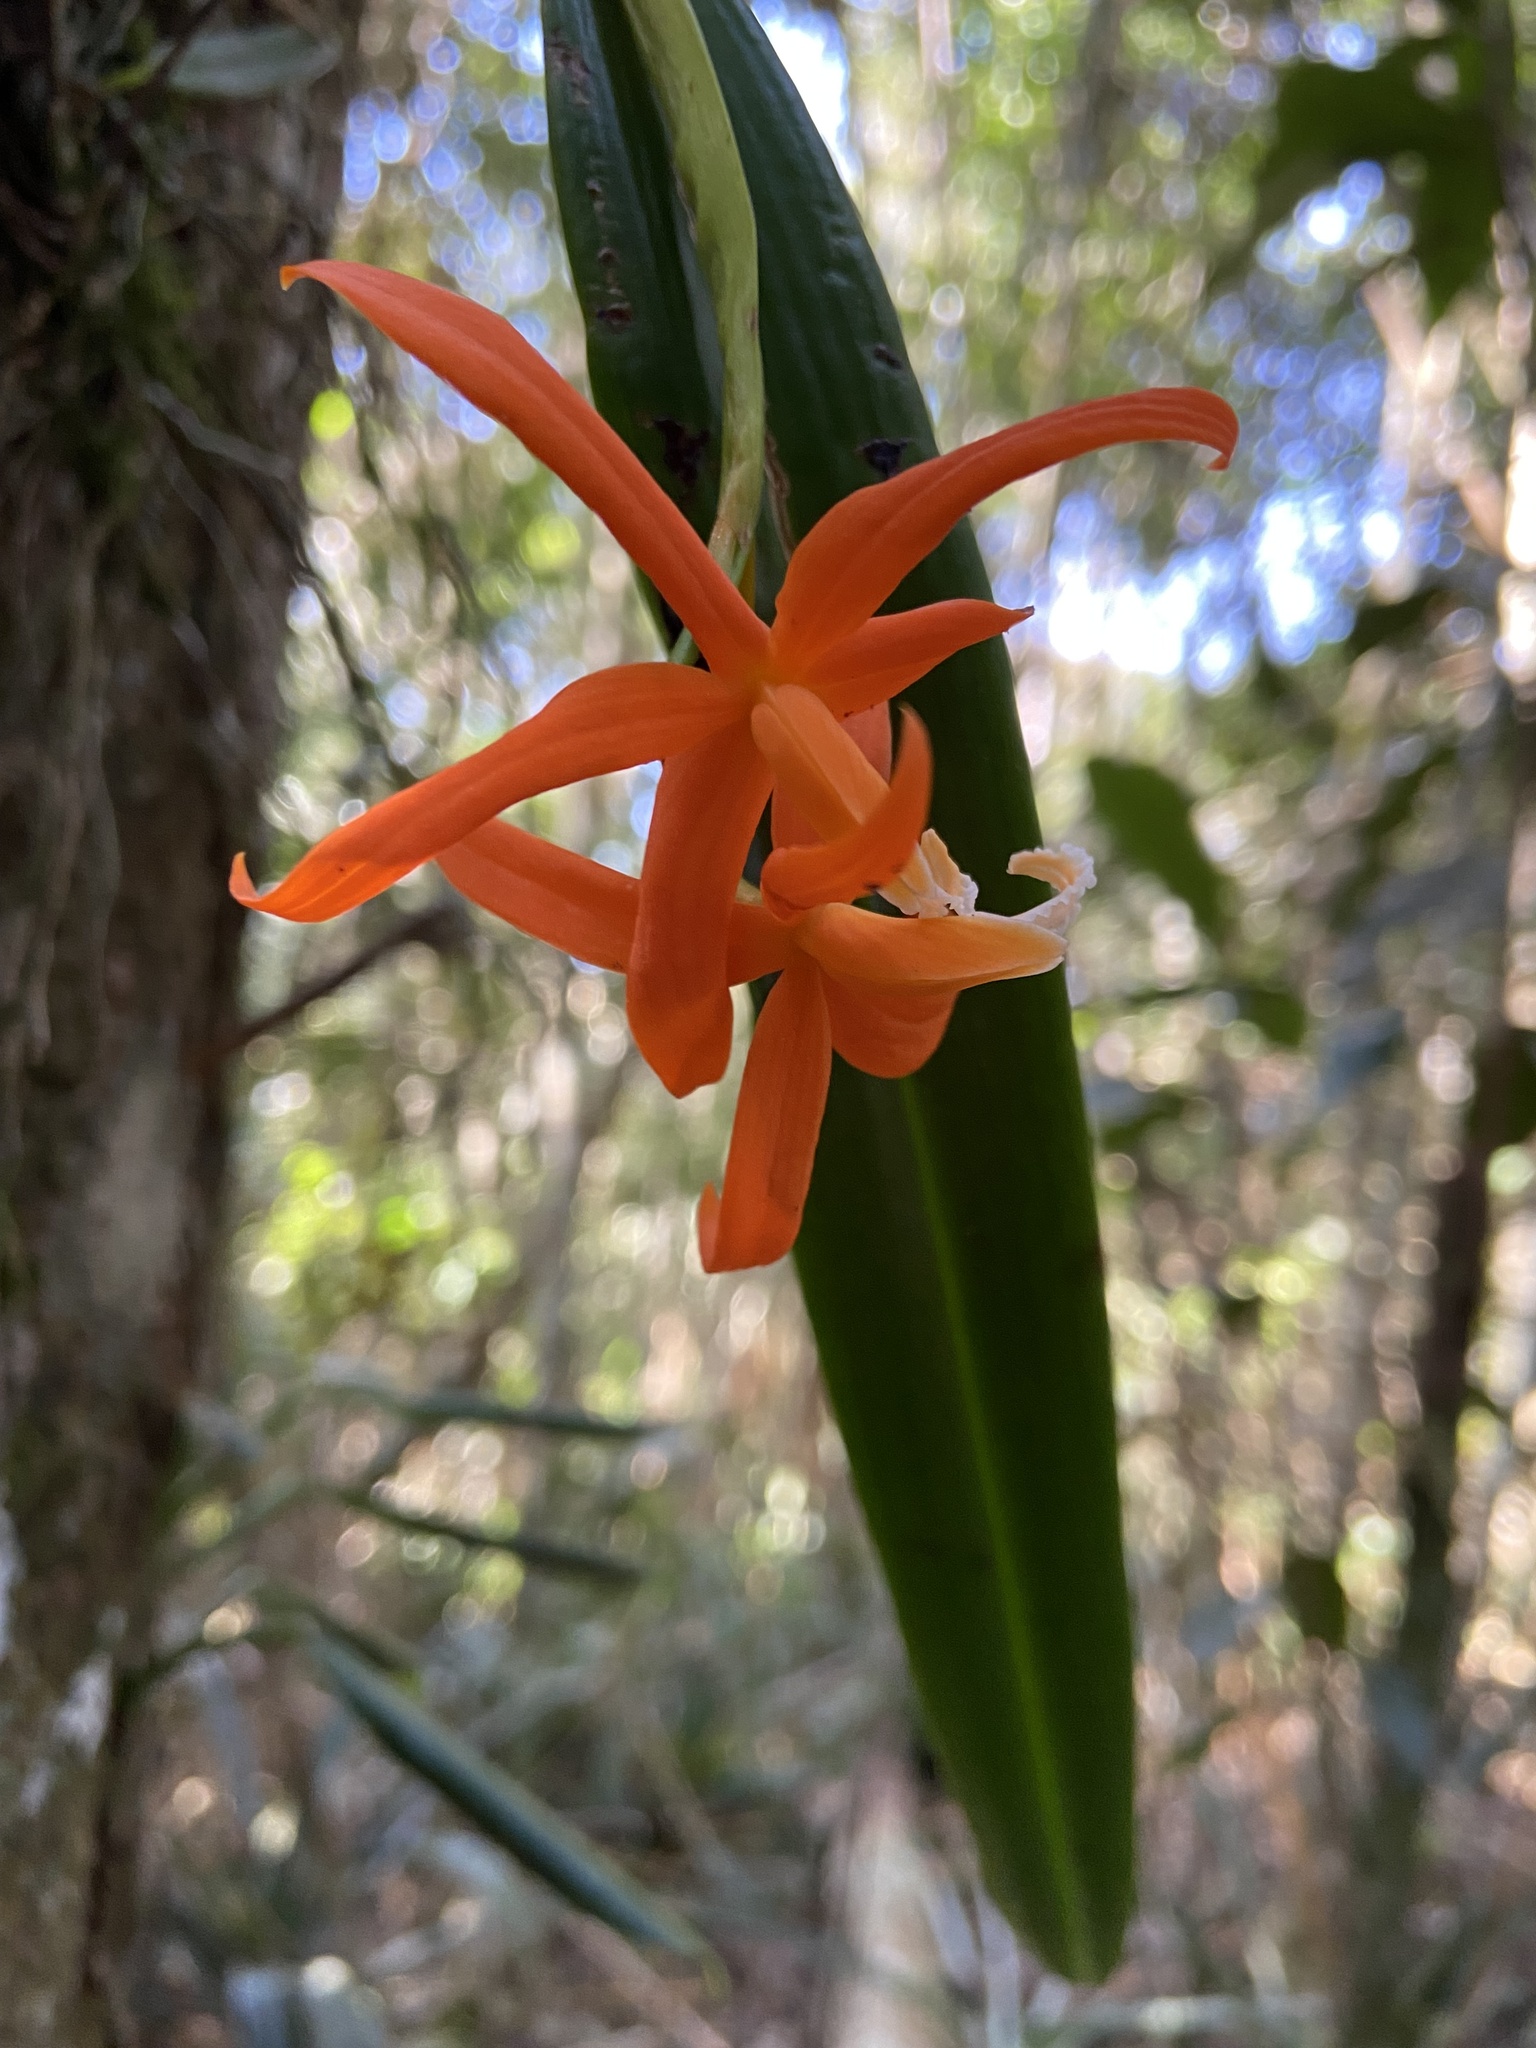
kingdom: Plantae
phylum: Tracheophyta
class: Liliopsida
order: Asparagales
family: Orchidaceae
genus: Cattleya
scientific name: Cattleya harpophylla
